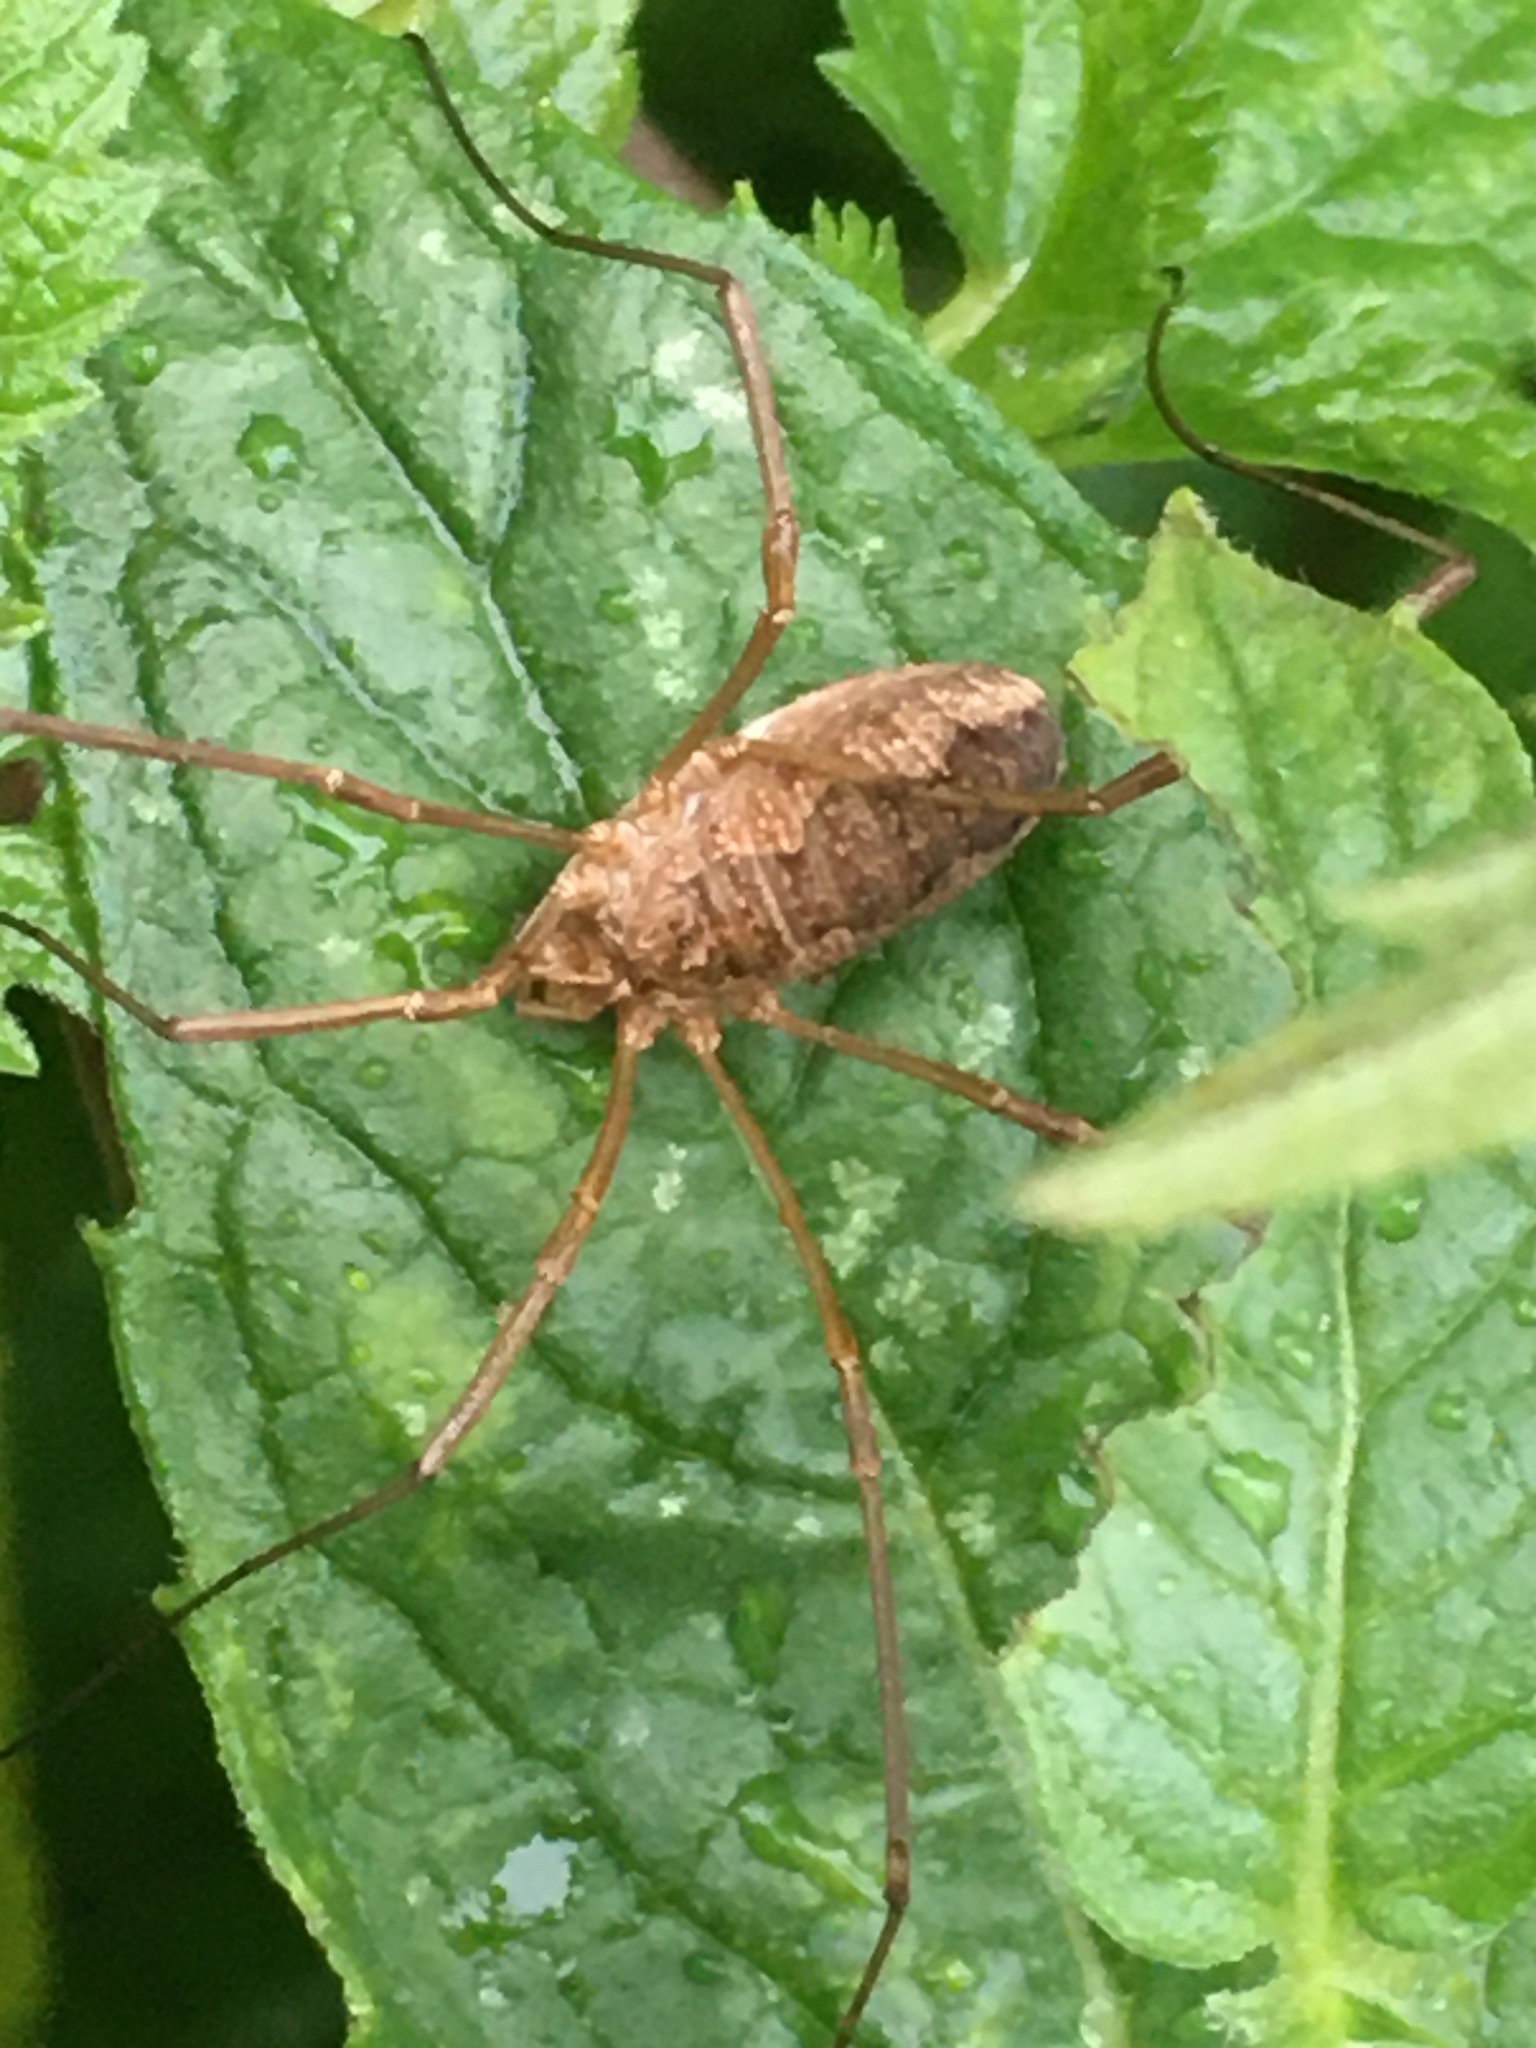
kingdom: Animalia
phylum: Arthropoda
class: Arachnida
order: Opiliones
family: Phalangiidae
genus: Phalangium
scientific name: Phalangium opilio
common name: Daddy longleg
